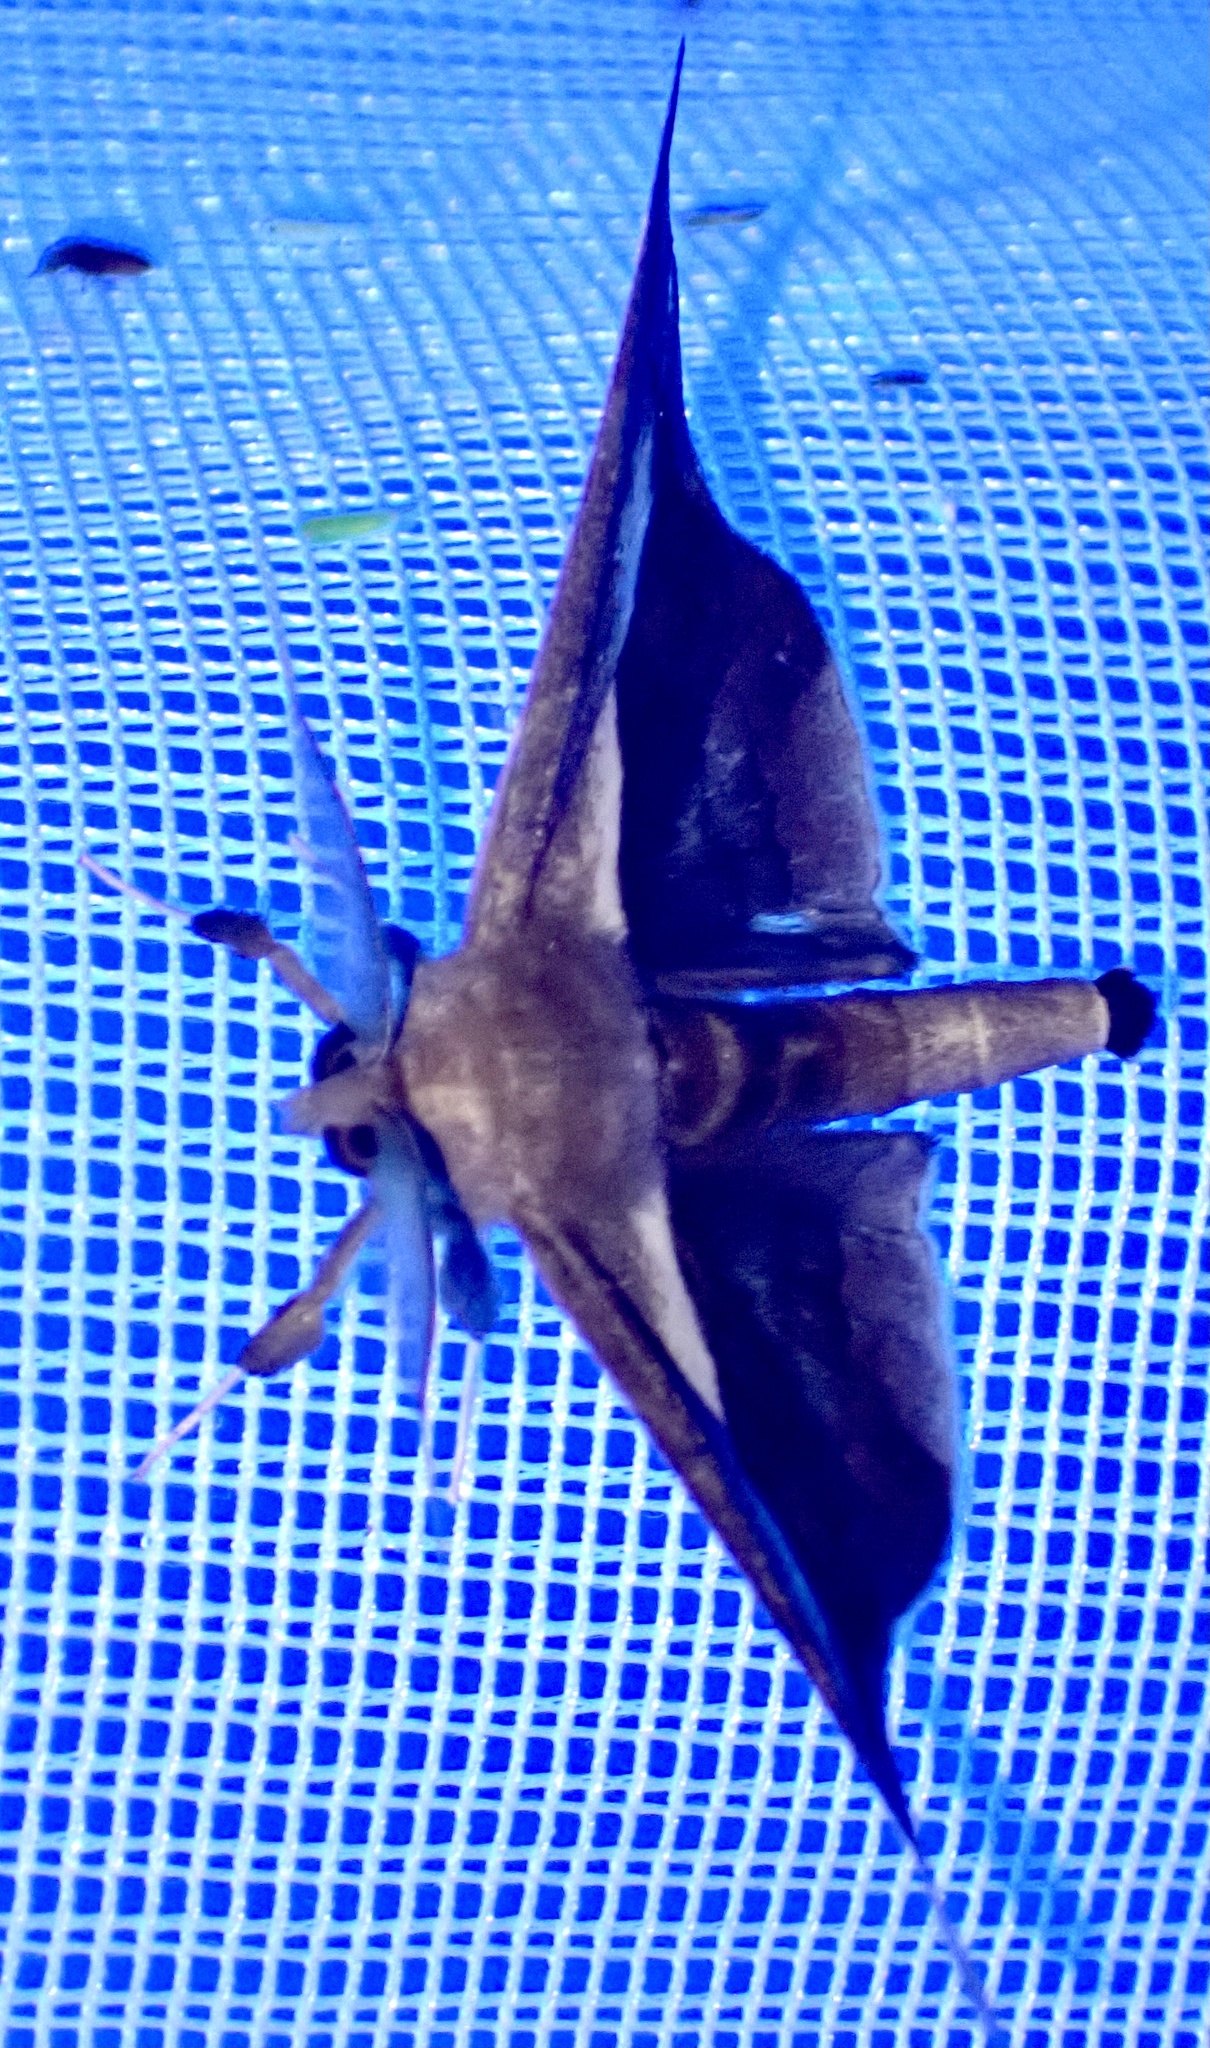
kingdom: Animalia
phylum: Arthropoda
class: Insecta
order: Lepidoptera
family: Erebidae
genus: Gorua
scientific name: Gorua partita
